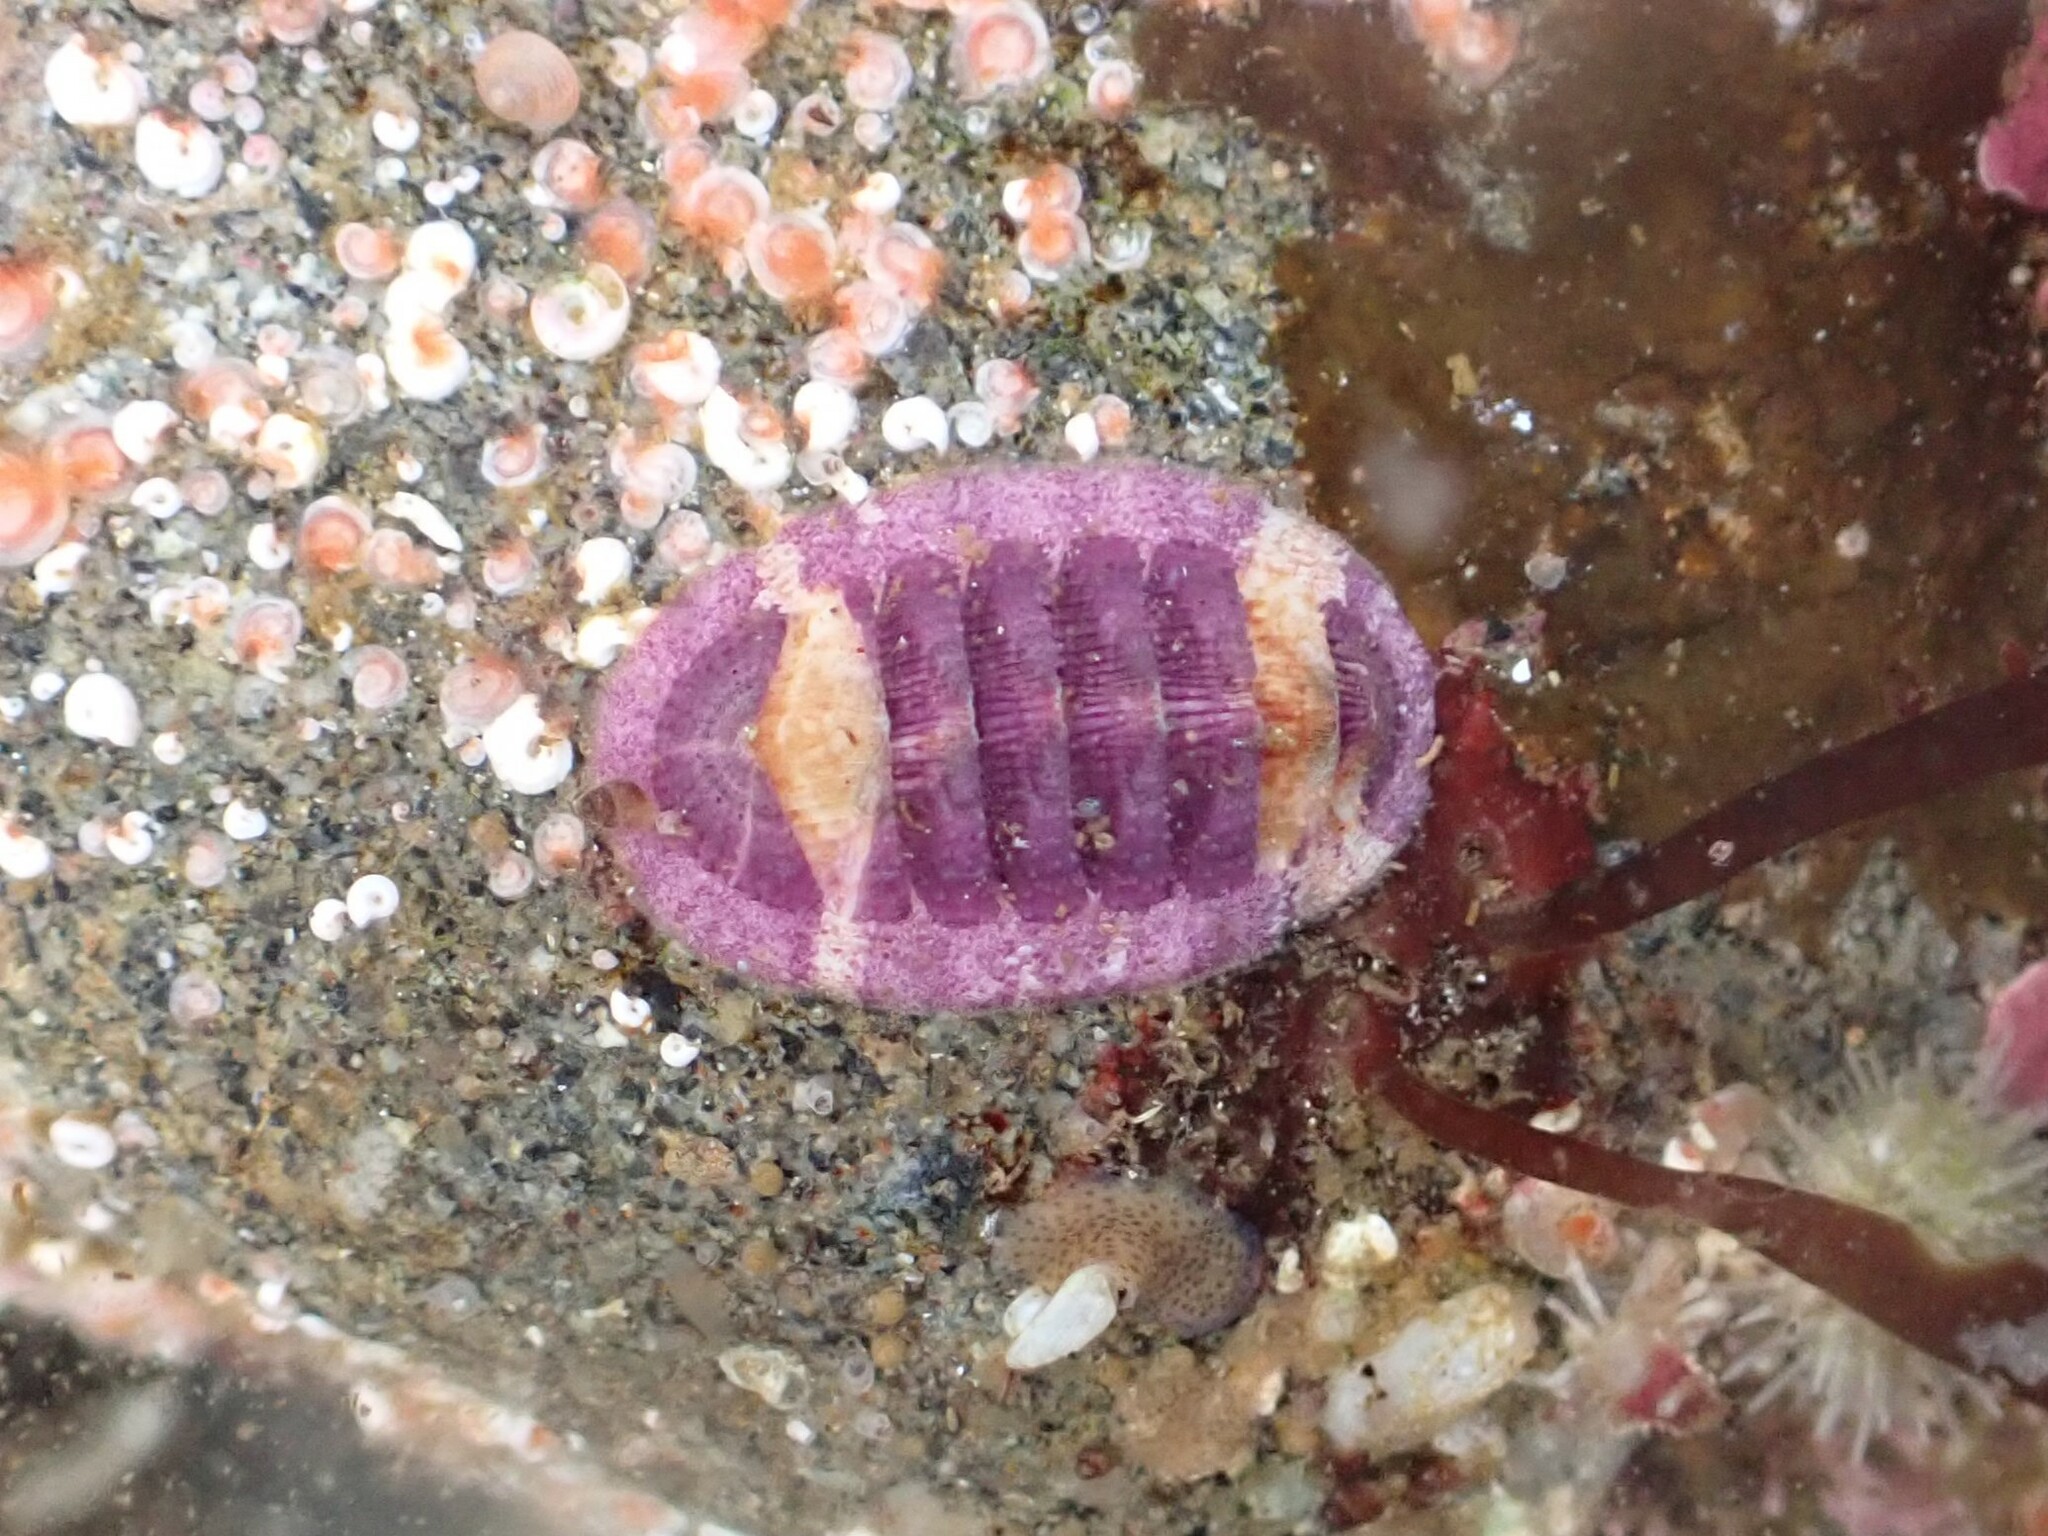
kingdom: Animalia
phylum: Mollusca
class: Polyplacophora
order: Chitonida
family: Ischnochitonidae
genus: Lepidozona
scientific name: Lepidozona mertensii
